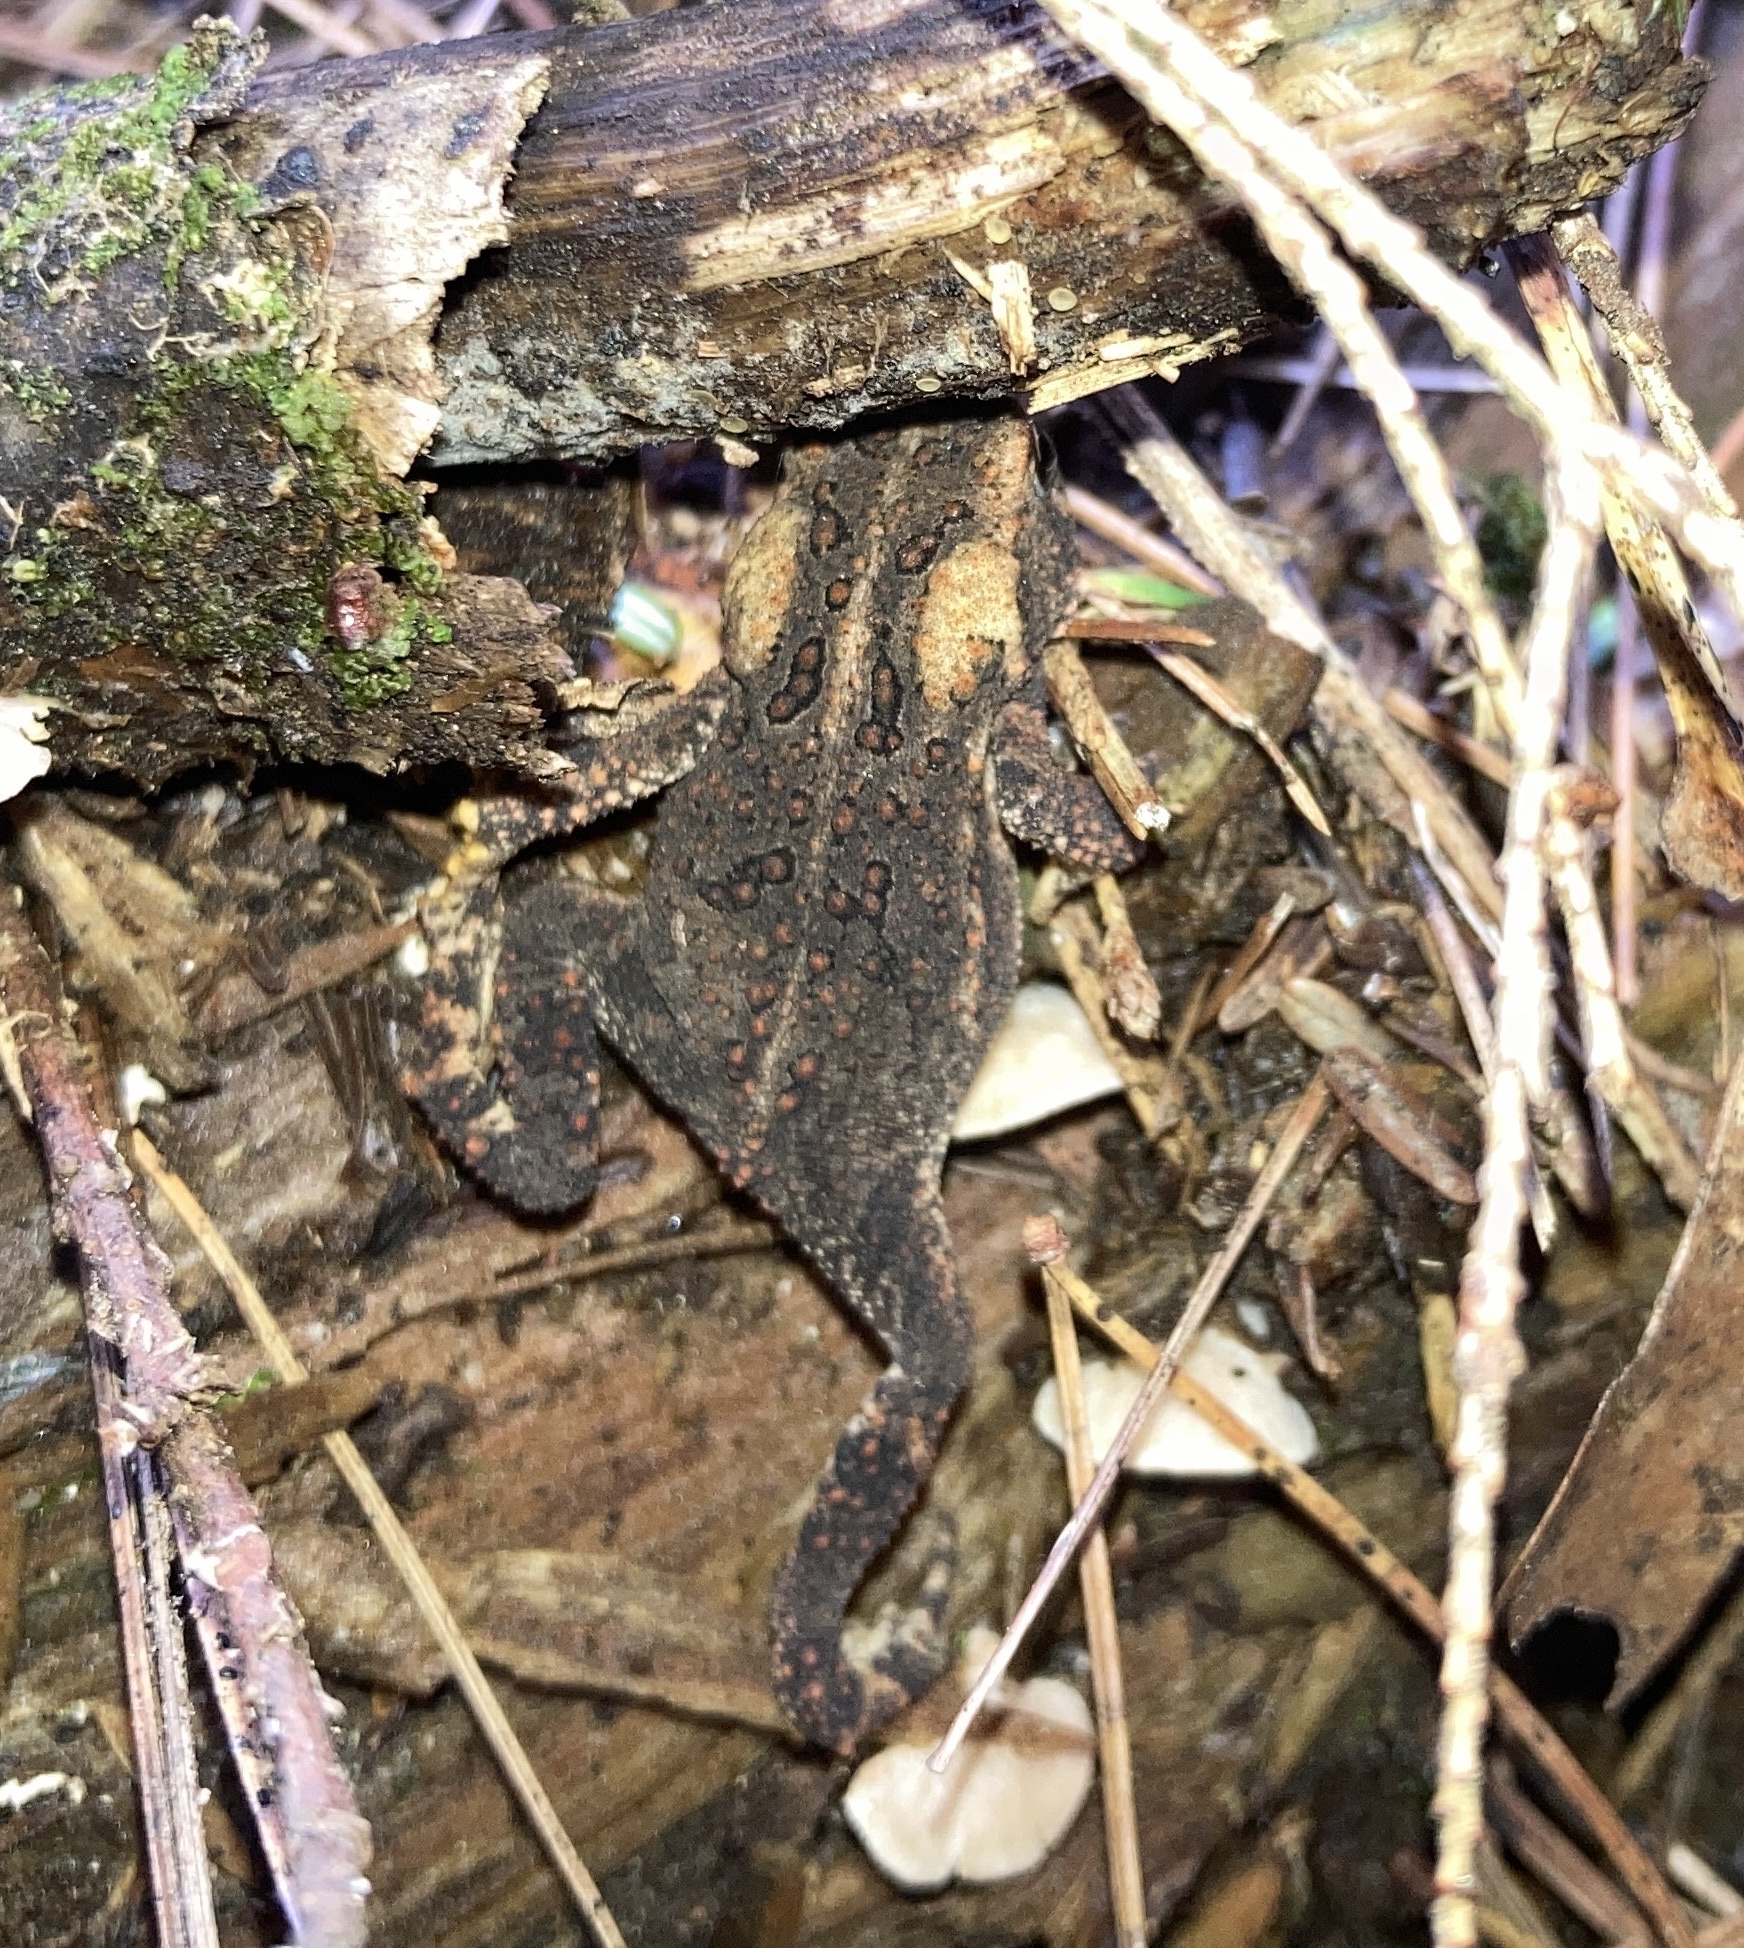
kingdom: Animalia
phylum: Chordata
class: Amphibia
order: Anura
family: Bufonidae
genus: Anaxyrus
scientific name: Anaxyrus americanus
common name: American toad
